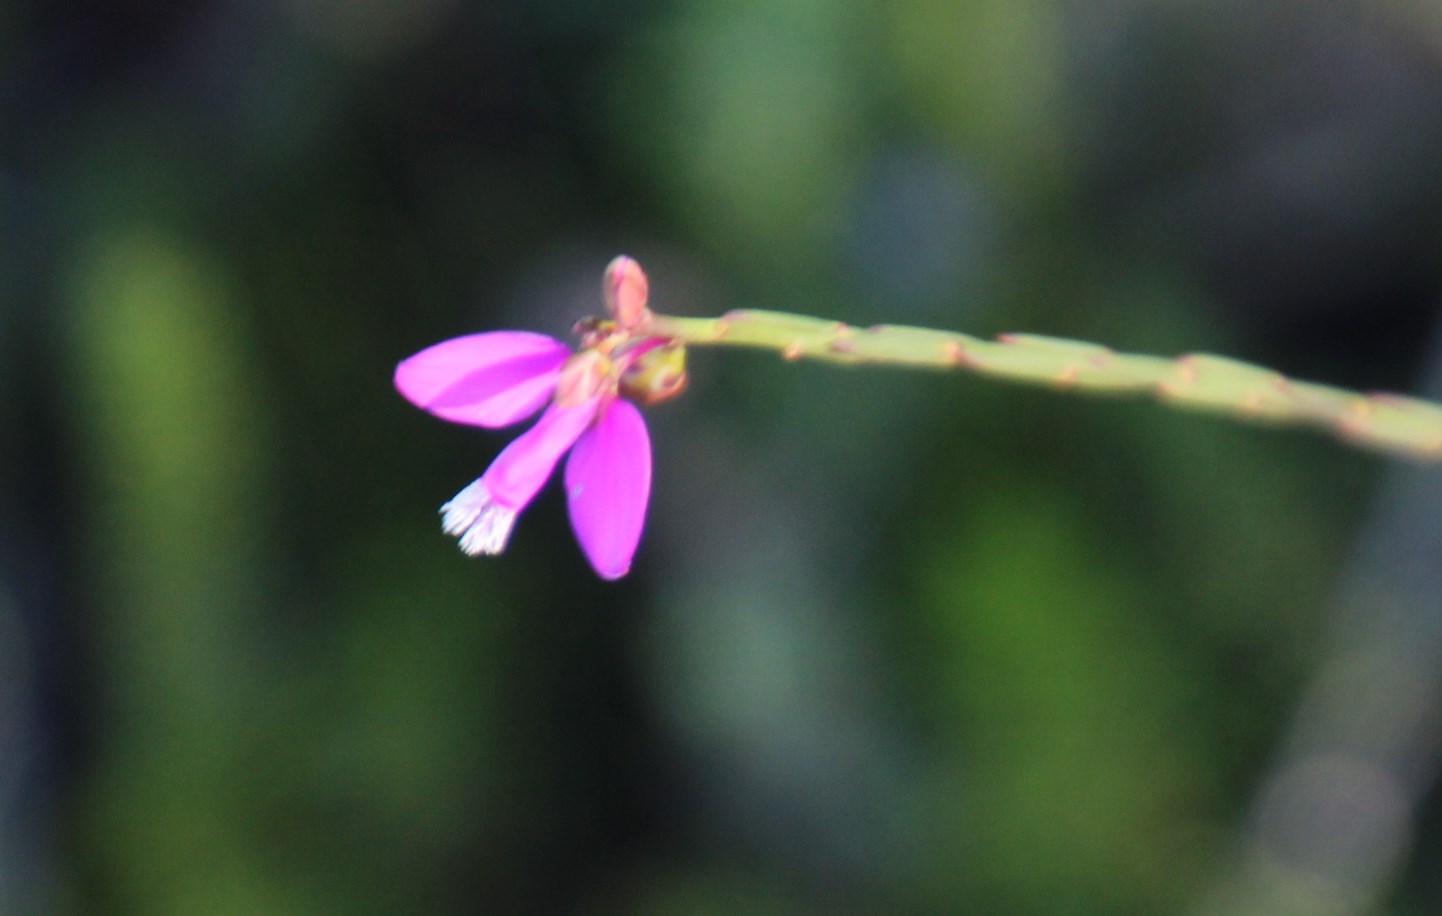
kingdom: Plantae
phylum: Tracheophyta
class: Magnoliopsida
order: Fabales
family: Polygalaceae
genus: Polygala
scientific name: Polygala garcini
